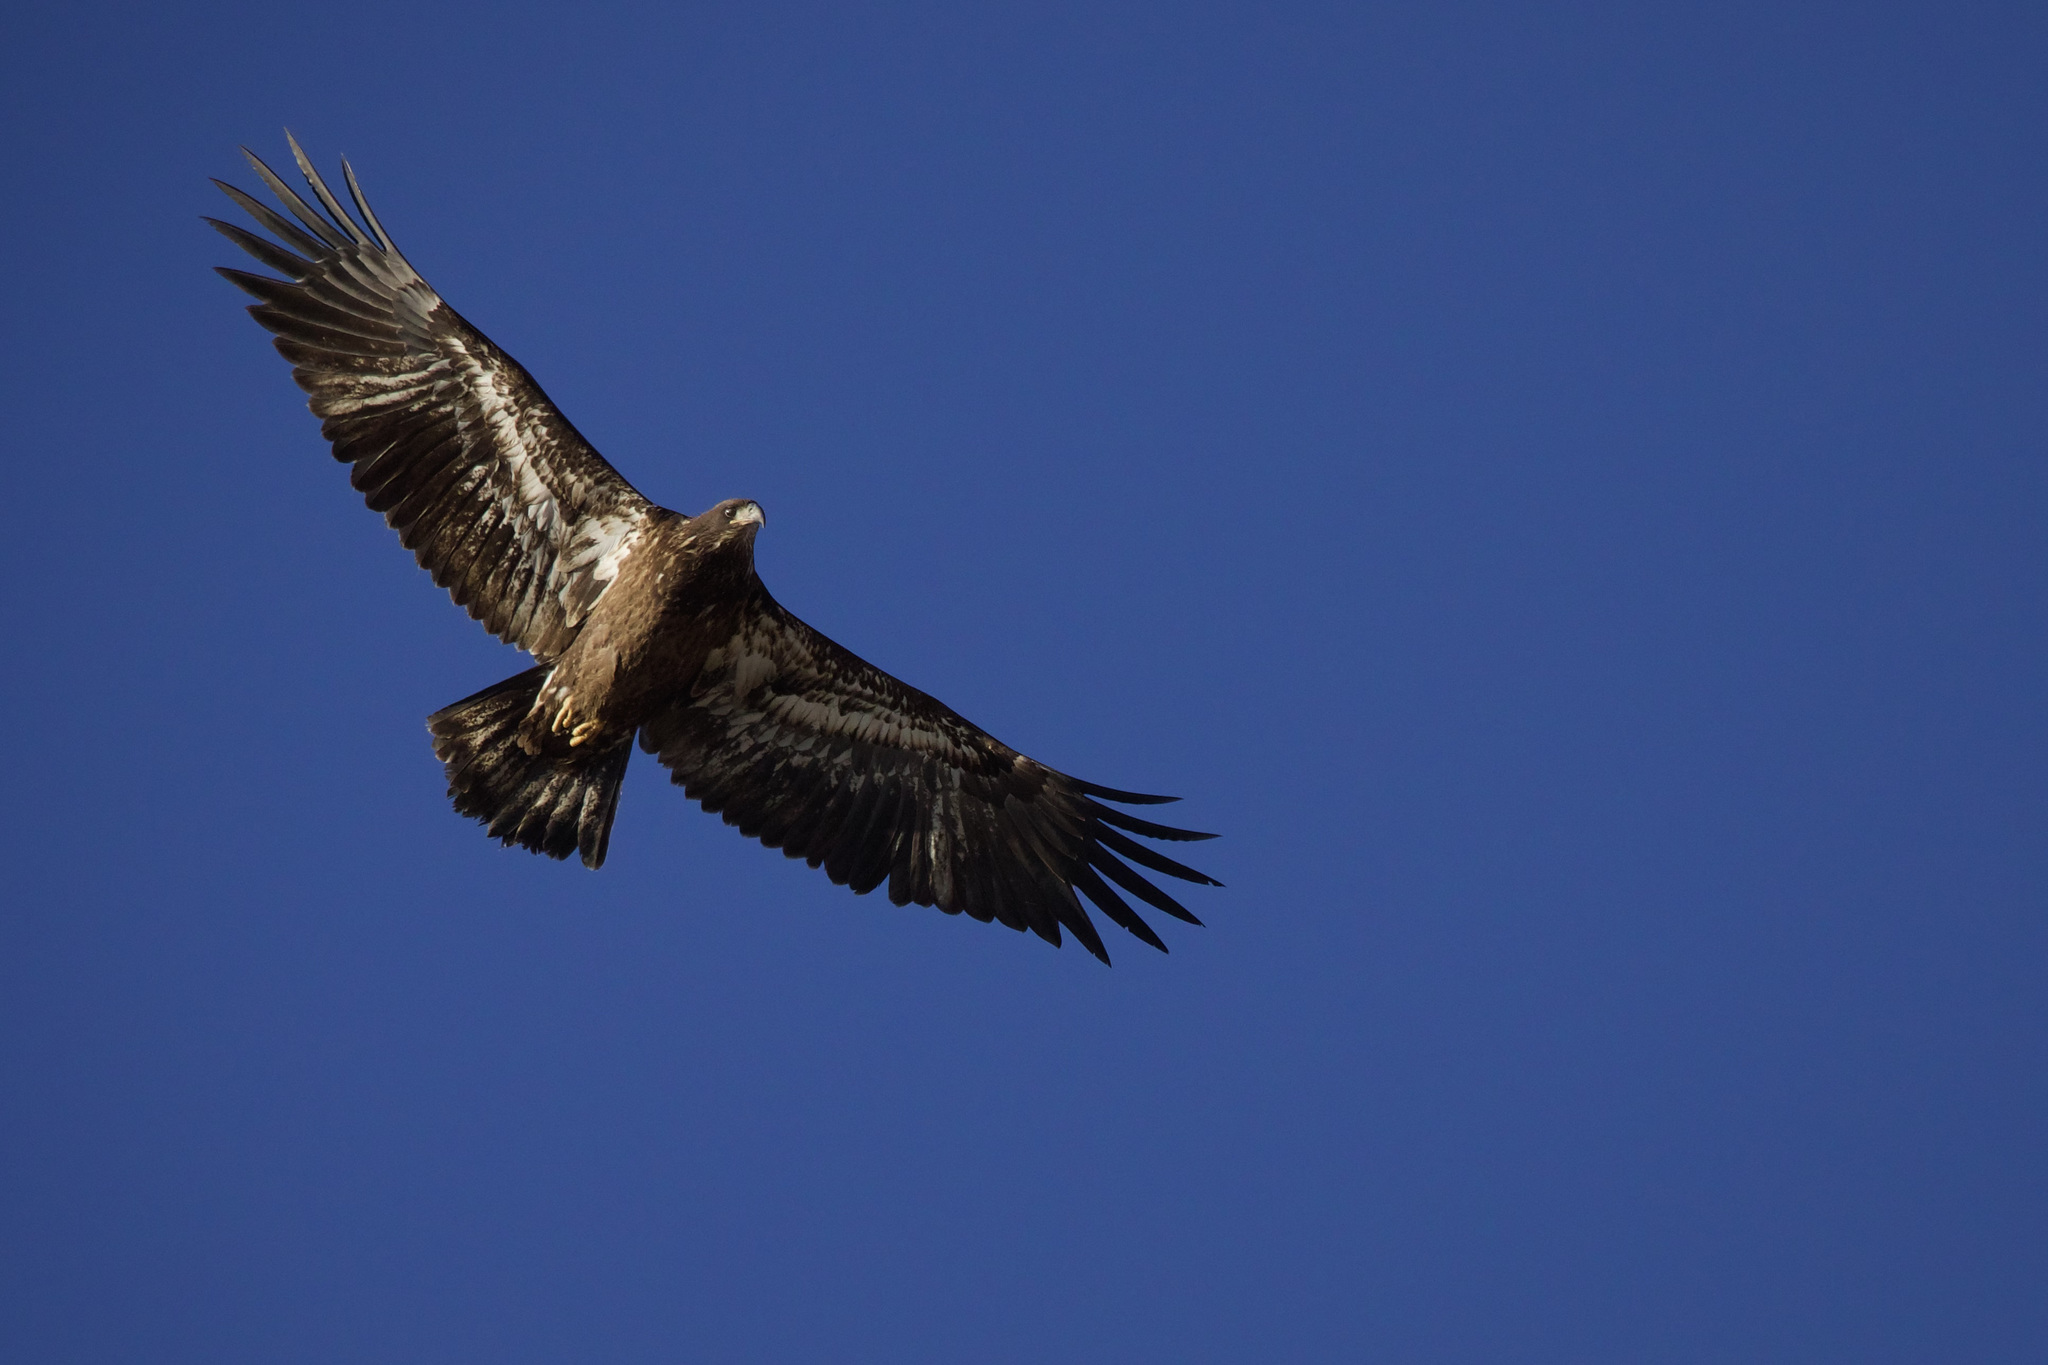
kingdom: Animalia
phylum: Chordata
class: Aves
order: Accipitriformes
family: Accipitridae
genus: Haliaeetus
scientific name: Haliaeetus leucocephalus
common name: Bald eagle
